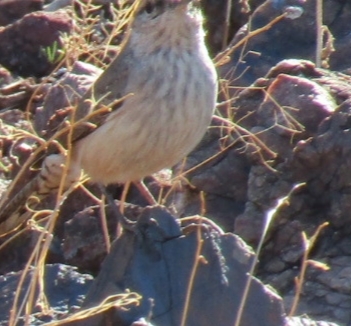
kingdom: Animalia
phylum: Chordata
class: Aves
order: Passeriformes
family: Troglodytidae
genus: Salpinctes
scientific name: Salpinctes obsoletus
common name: Rock wren
